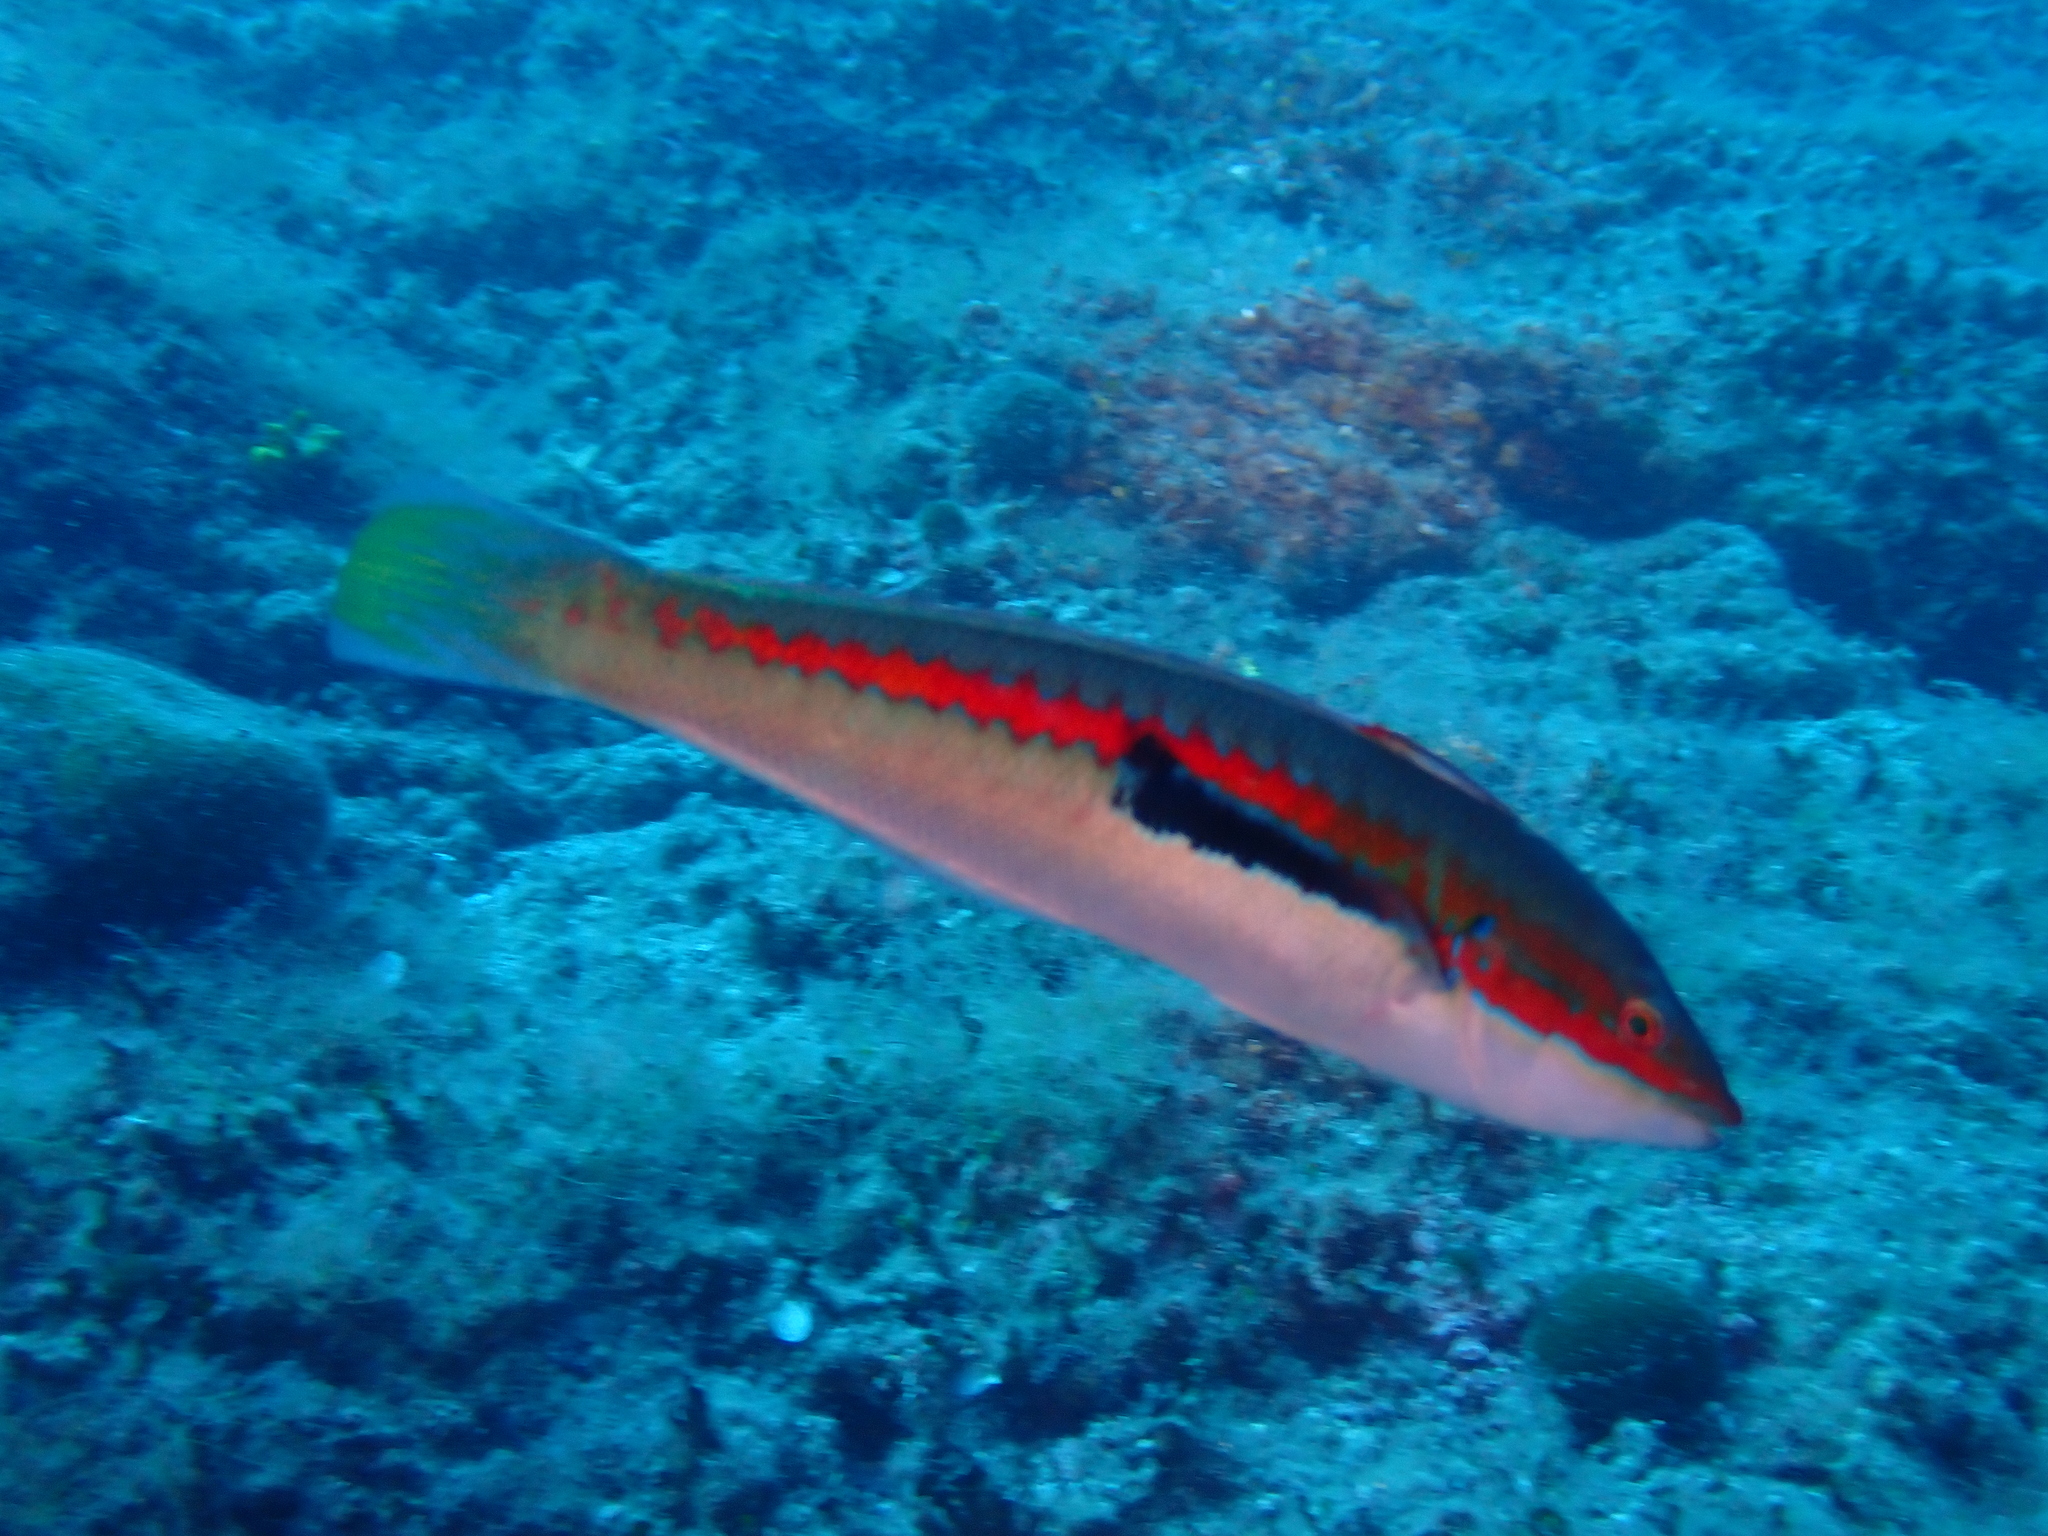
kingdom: Animalia
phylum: Chordata
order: Perciformes
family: Labridae
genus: Coris
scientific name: Coris julis
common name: Rainbow wrasse
